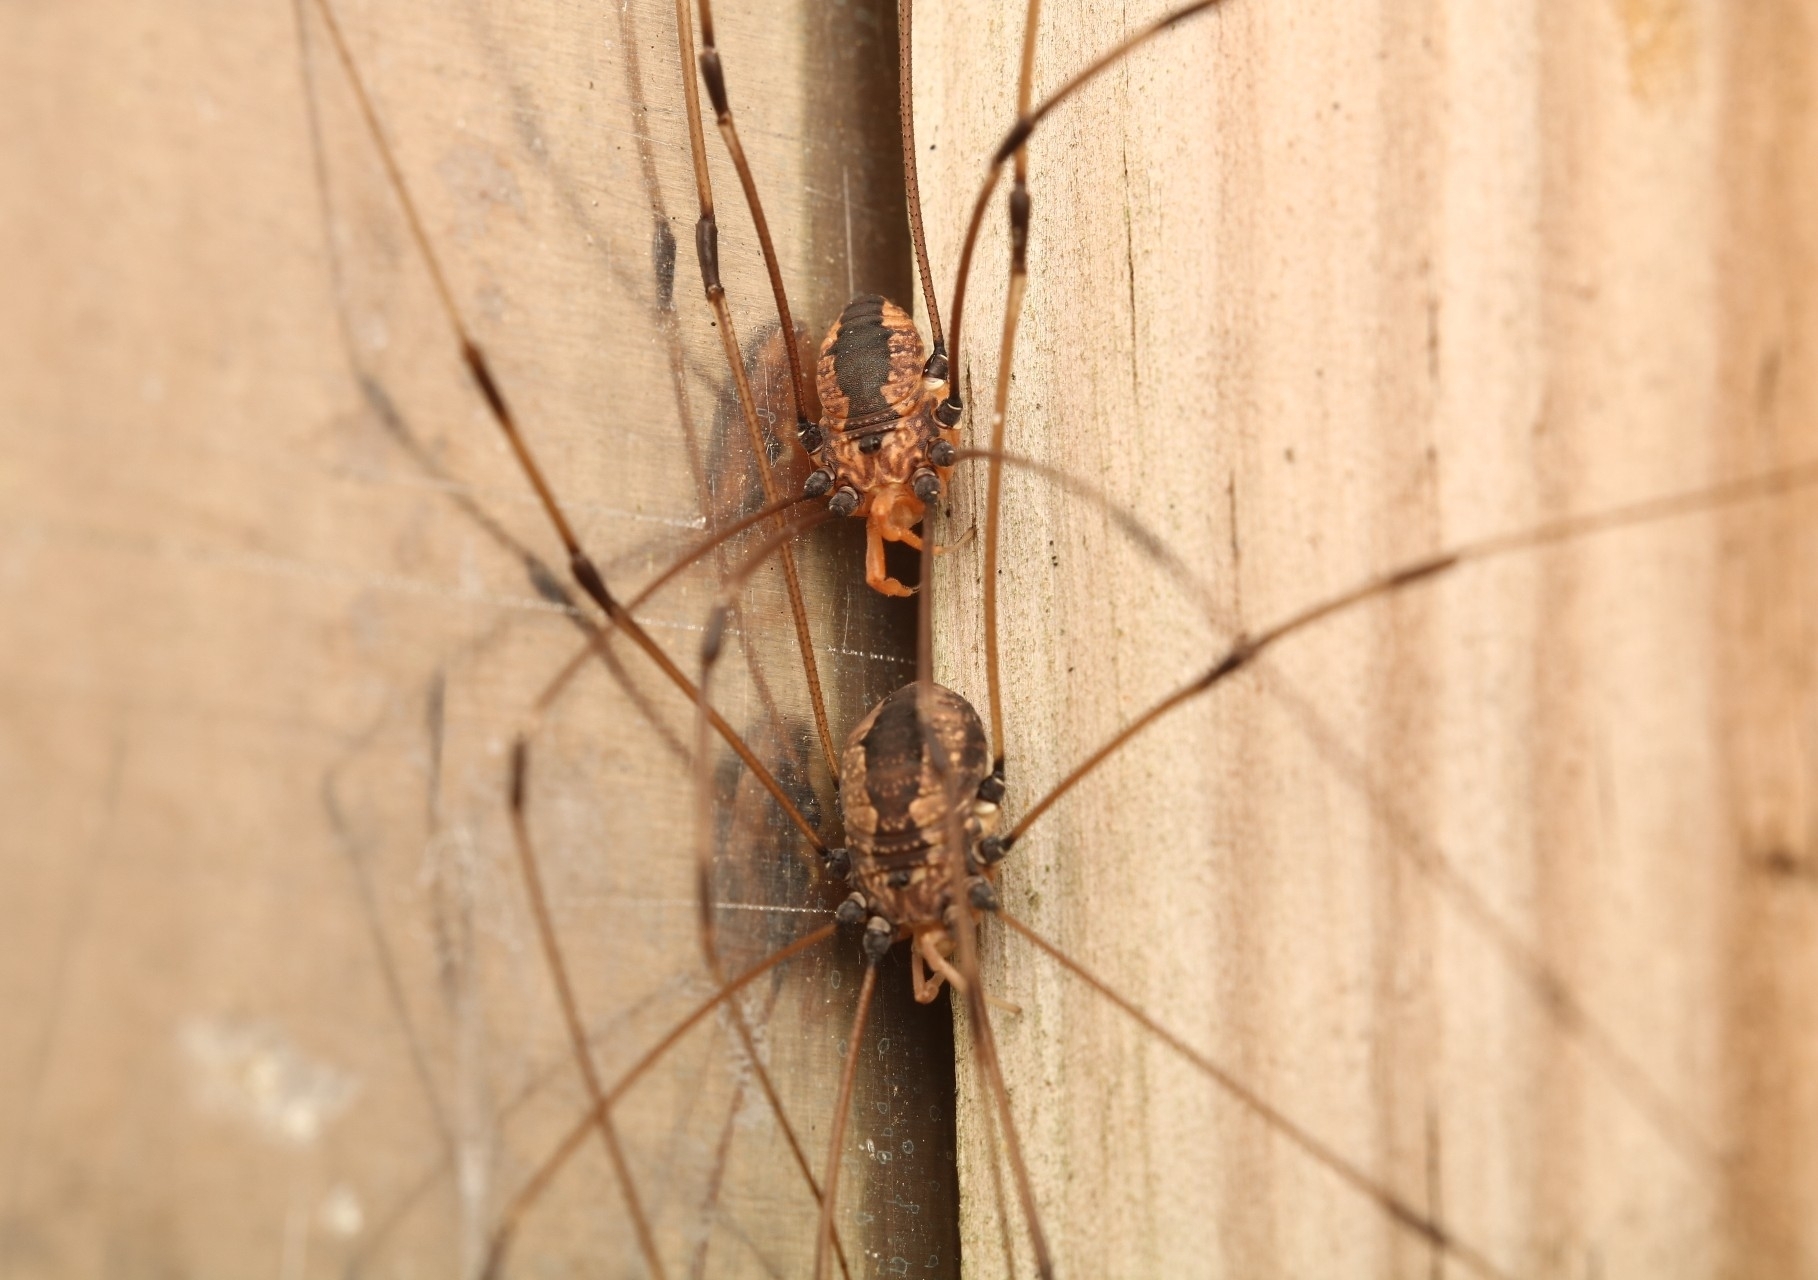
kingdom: Animalia
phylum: Arthropoda
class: Arachnida
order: Opiliones
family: Sclerosomatidae
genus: Leiobunum
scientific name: Leiobunum vittatum
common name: Eastern harvestman
